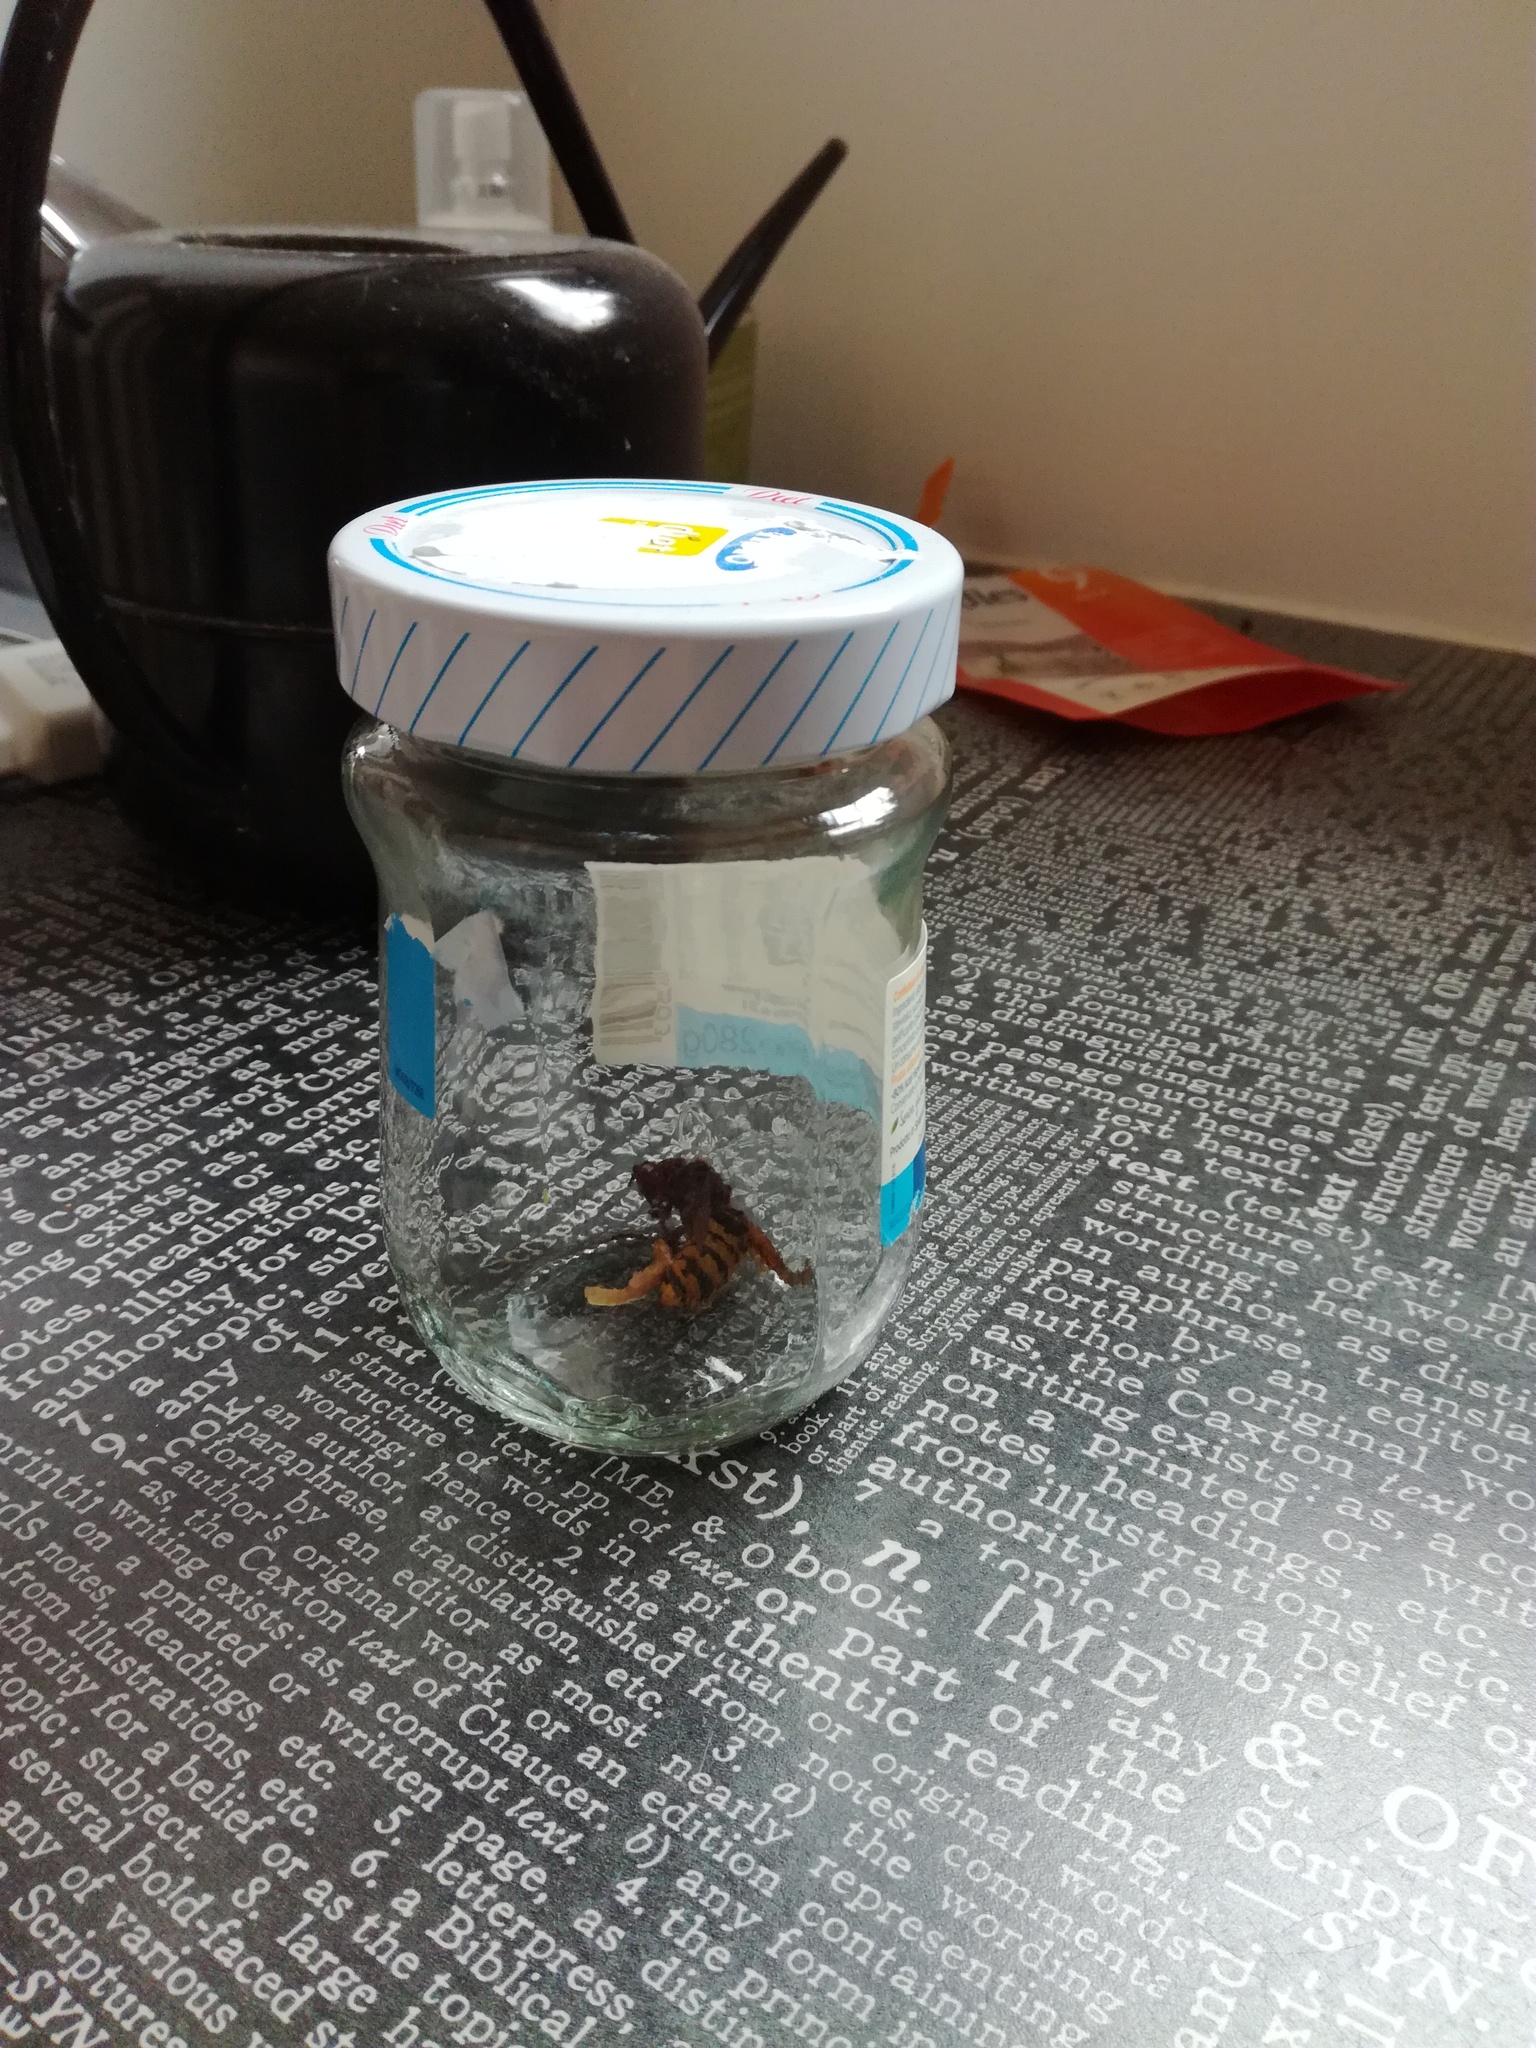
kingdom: Animalia
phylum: Arthropoda
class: Insecta
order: Hymenoptera
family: Vespidae
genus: Vespa
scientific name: Vespa crabro
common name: Hornet
